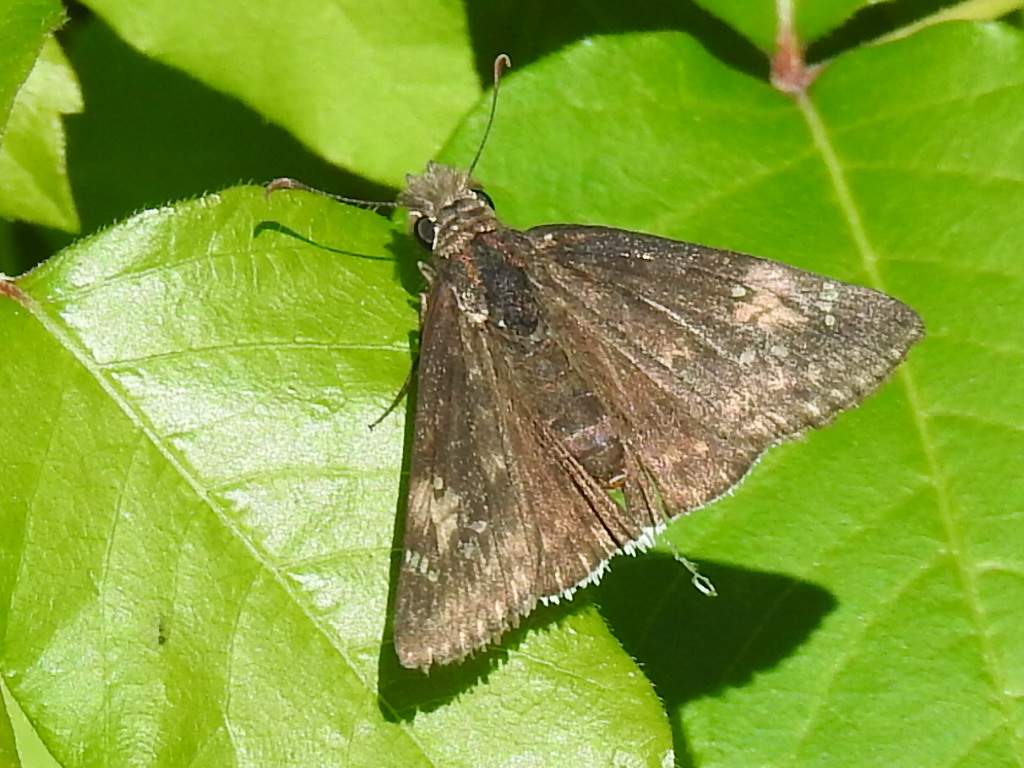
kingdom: Animalia
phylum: Arthropoda
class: Insecta
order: Lepidoptera
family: Hesperiidae
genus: Erynnis
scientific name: Erynnis funeralis
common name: Funereal duskywing
